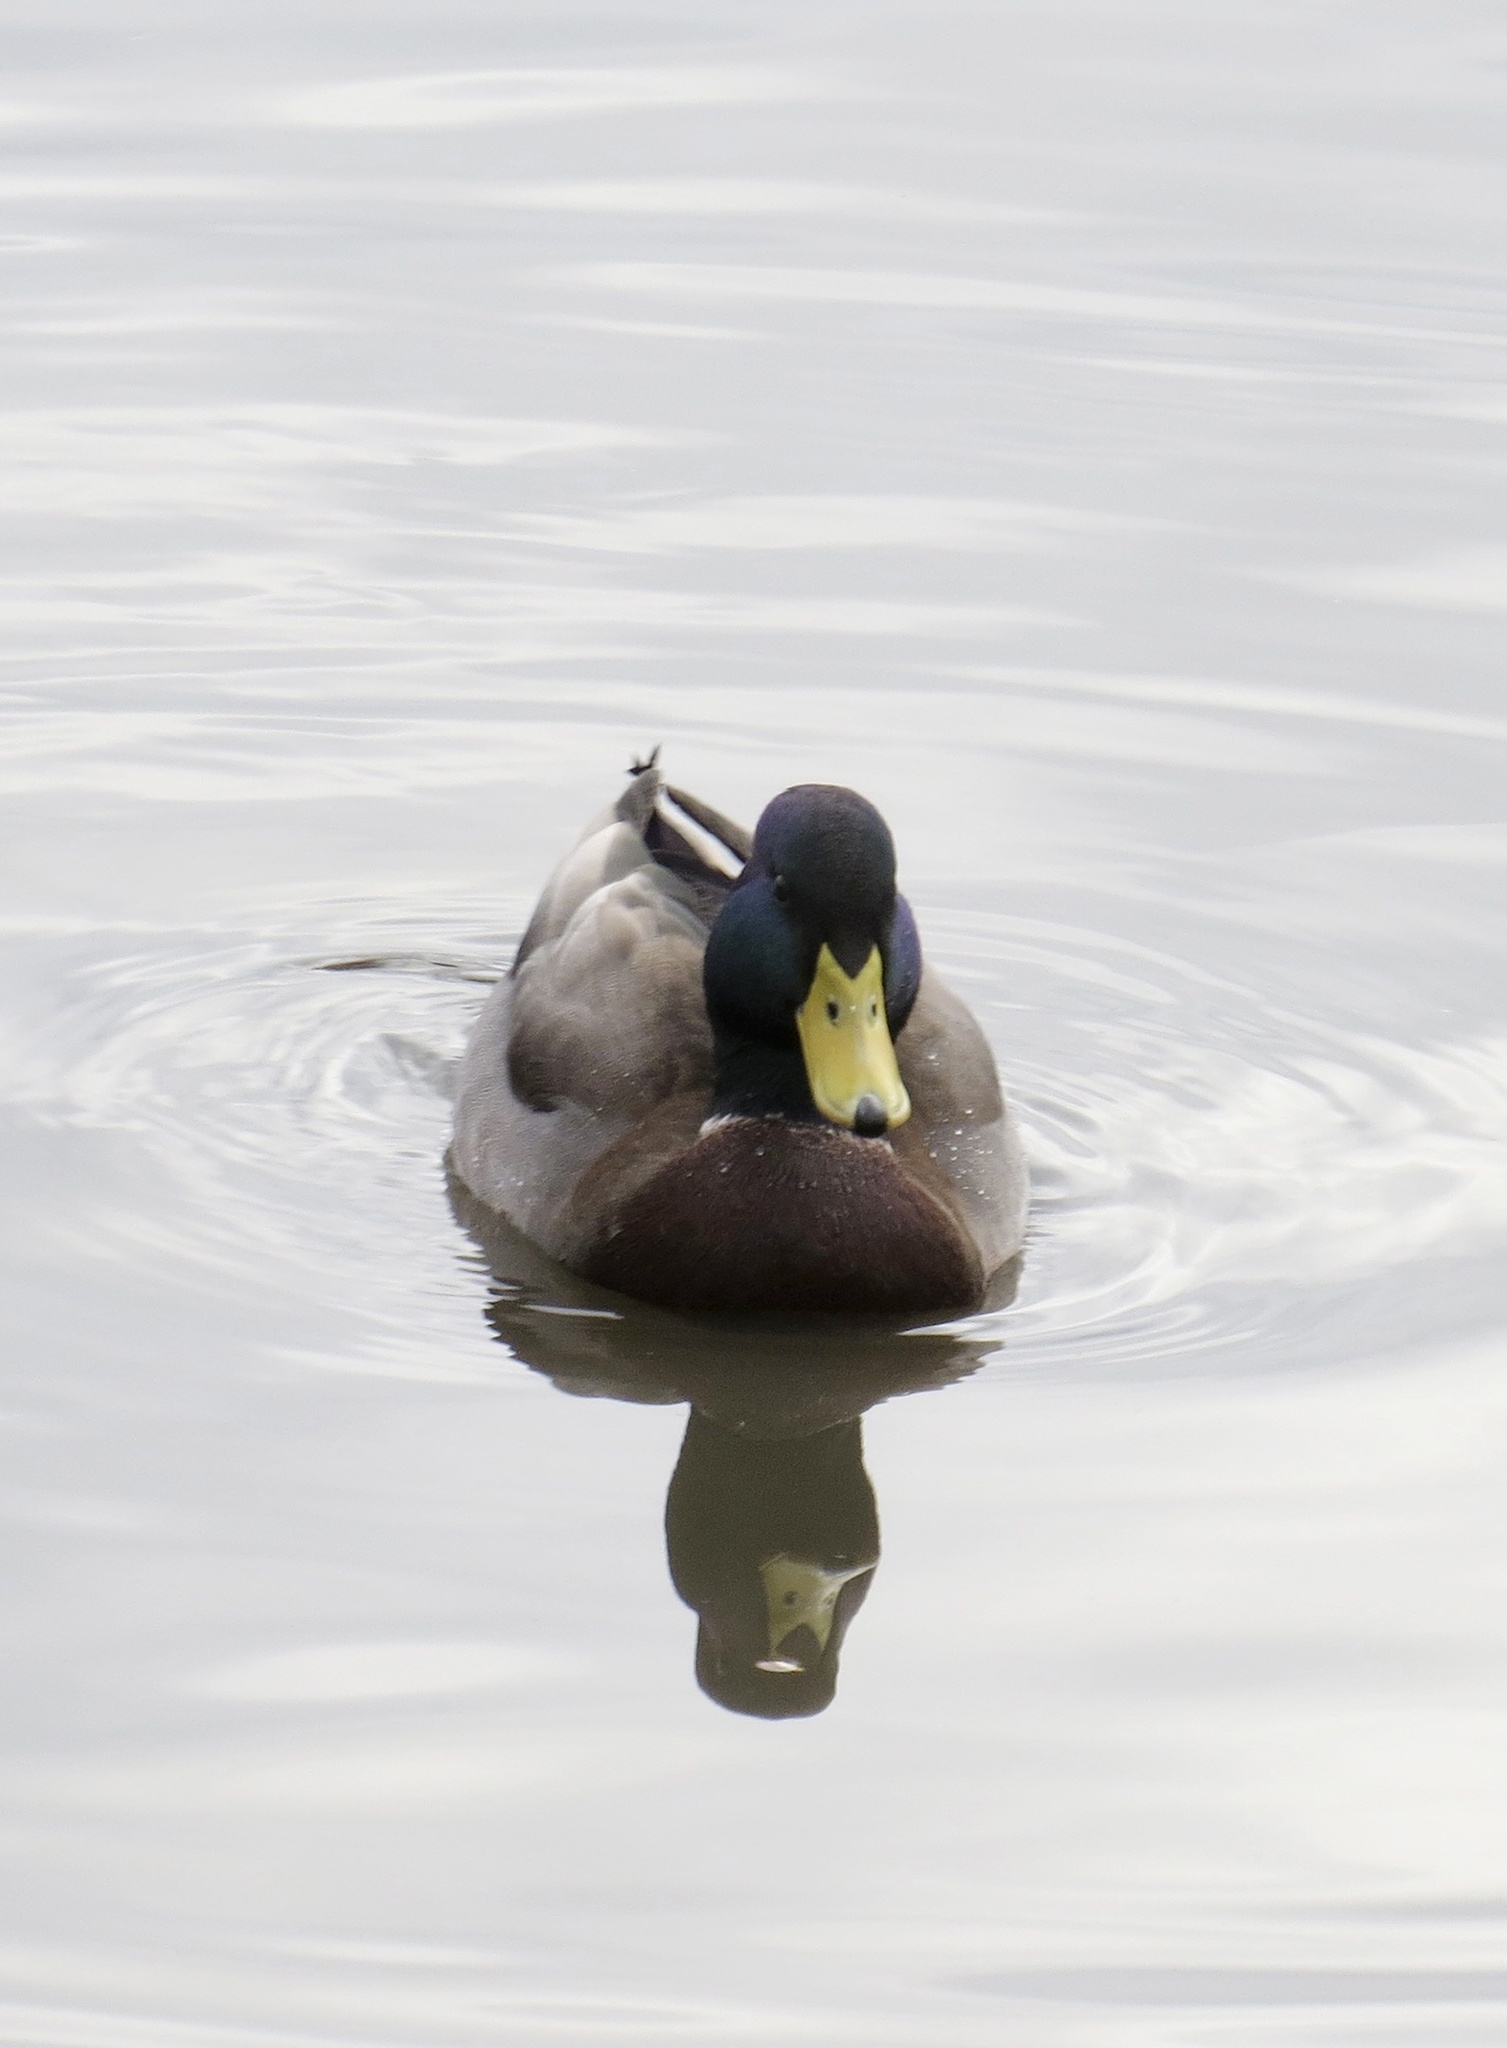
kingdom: Animalia
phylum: Chordata
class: Aves
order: Anseriformes
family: Anatidae
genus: Anas
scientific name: Anas platyrhynchos
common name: Mallard
